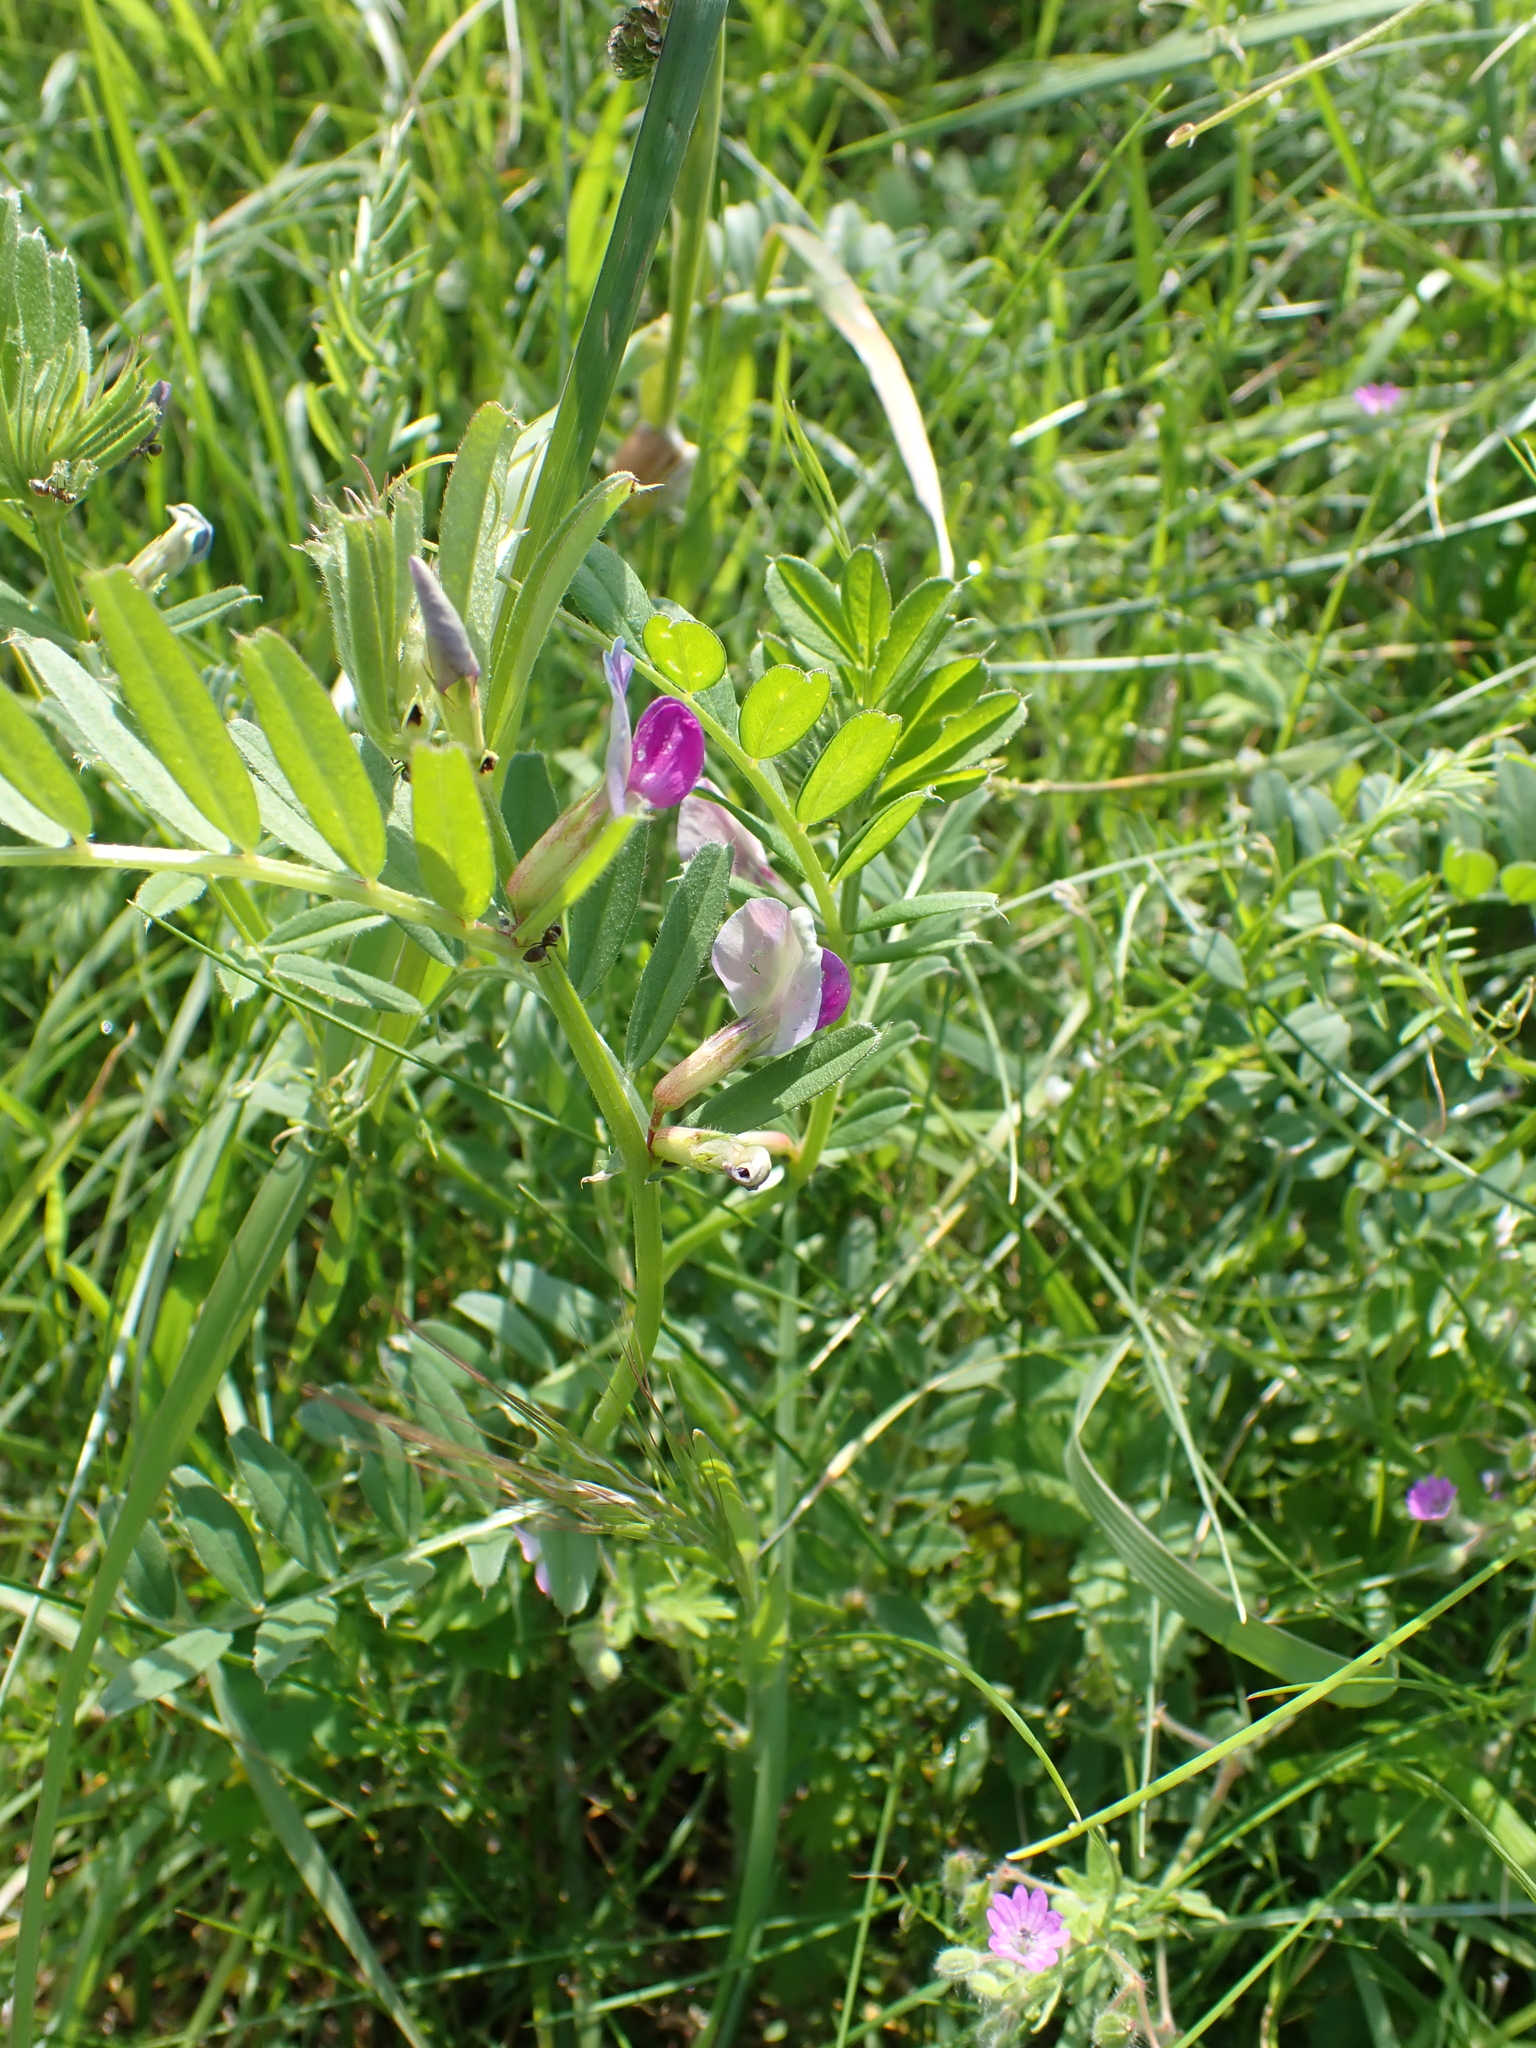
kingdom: Plantae
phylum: Tracheophyta
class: Magnoliopsida
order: Fabales
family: Fabaceae
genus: Vicia
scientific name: Vicia sativa
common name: Garden vetch
